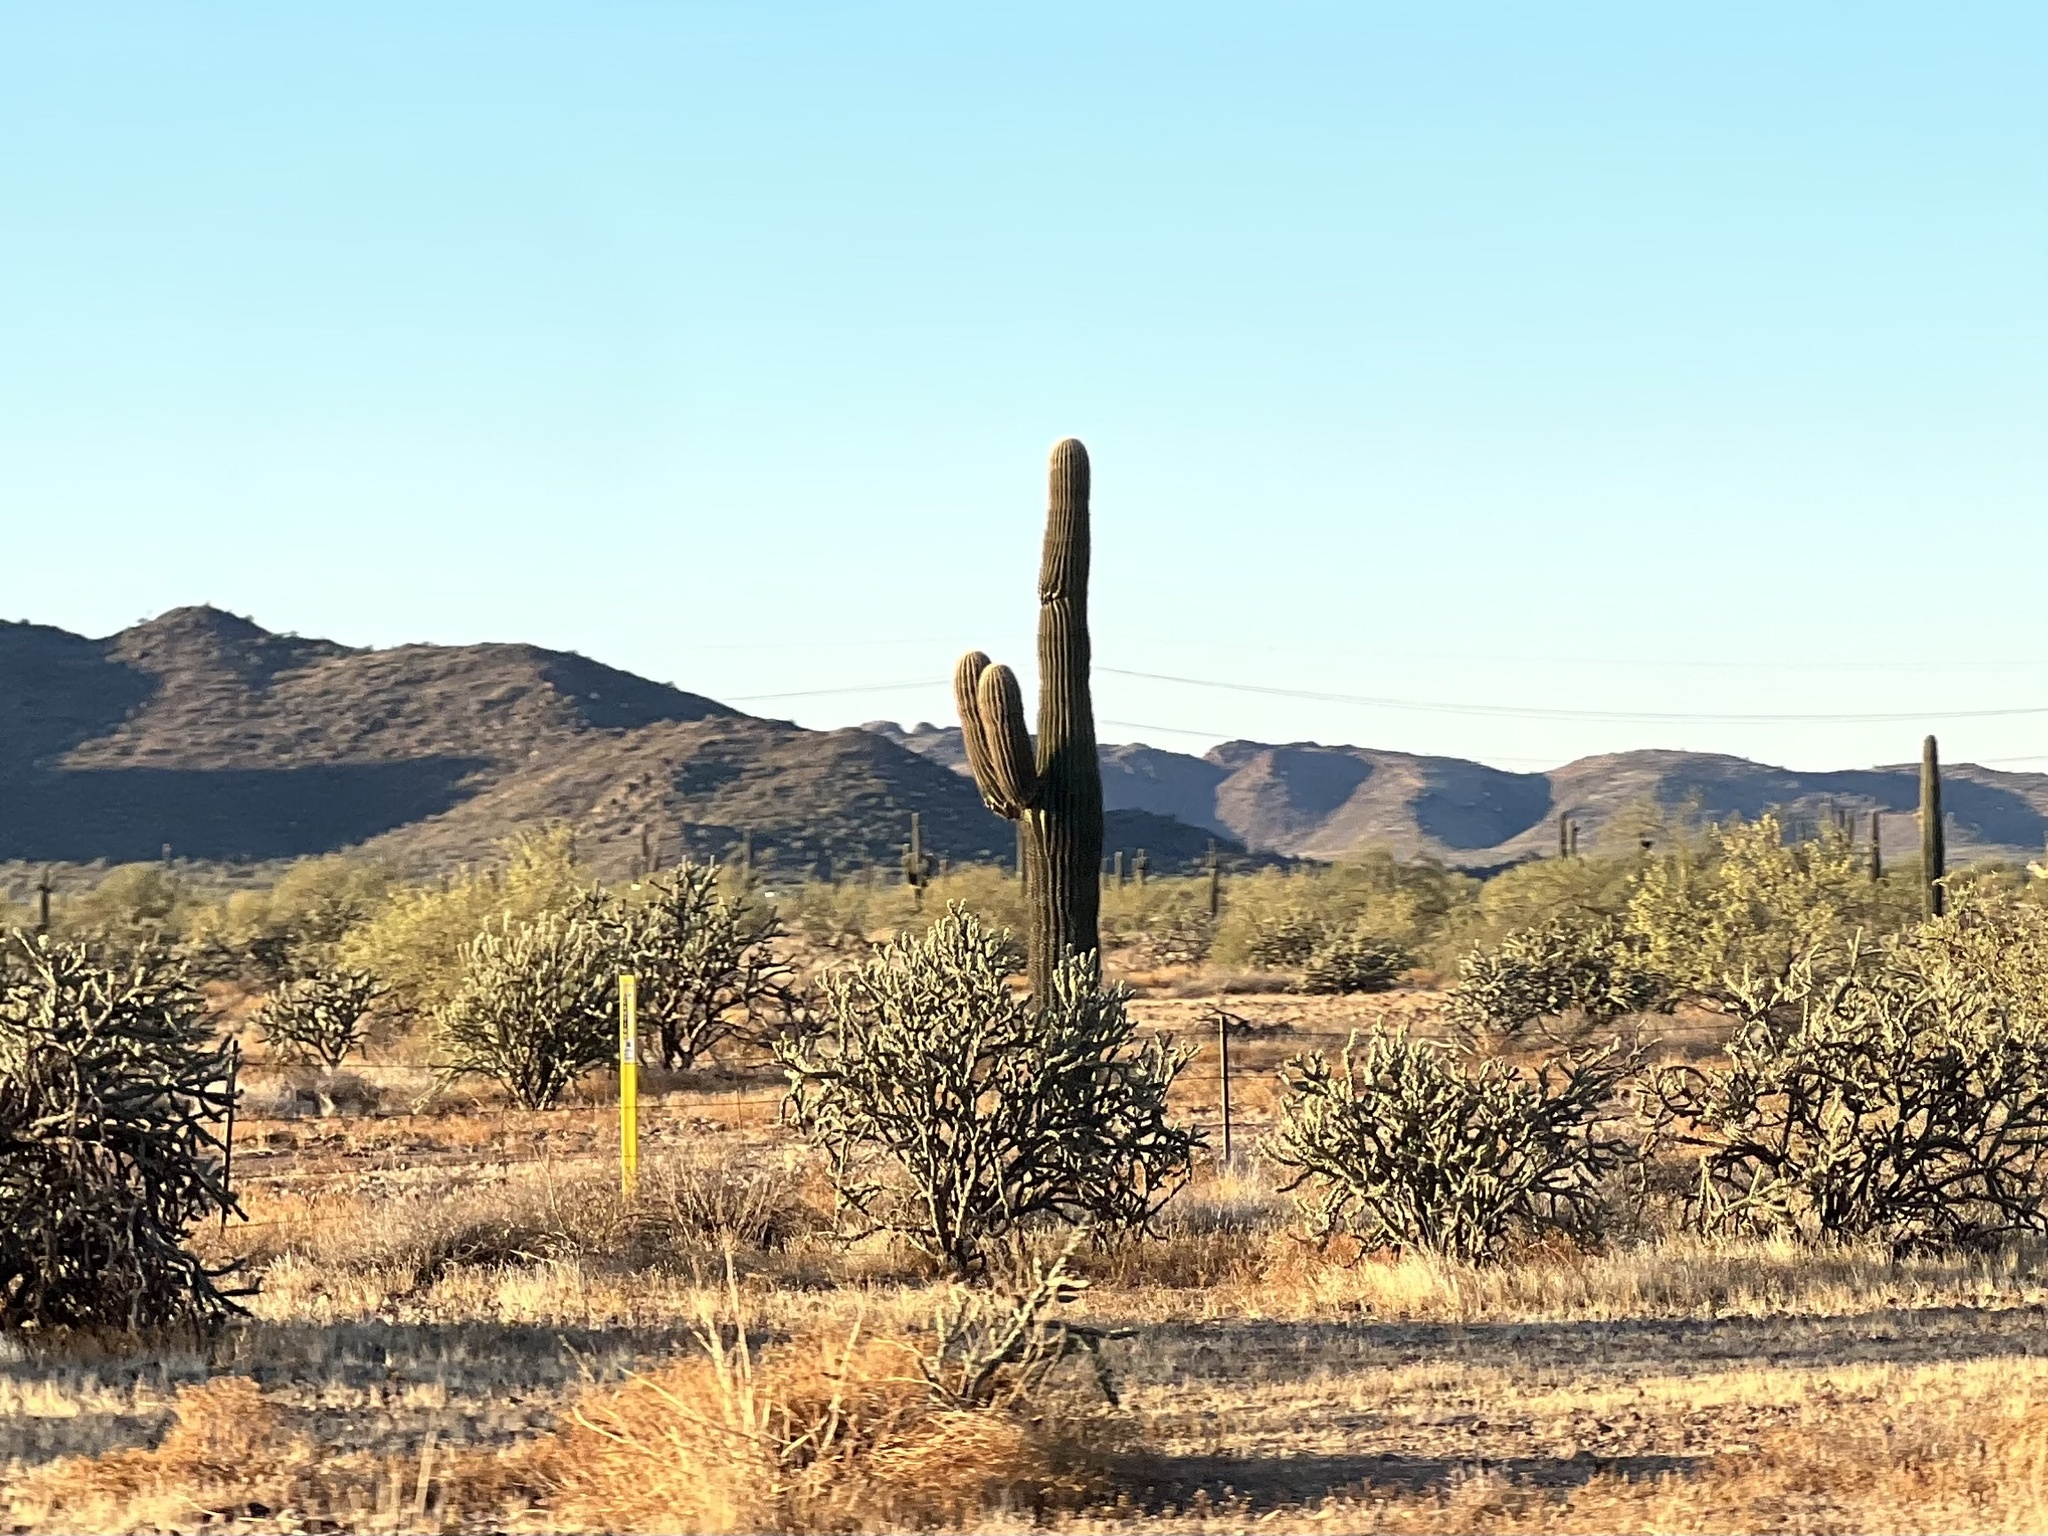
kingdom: Plantae
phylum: Tracheophyta
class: Magnoliopsida
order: Caryophyllales
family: Cactaceae
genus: Carnegiea
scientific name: Carnegiea gigantea
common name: Saguaro
